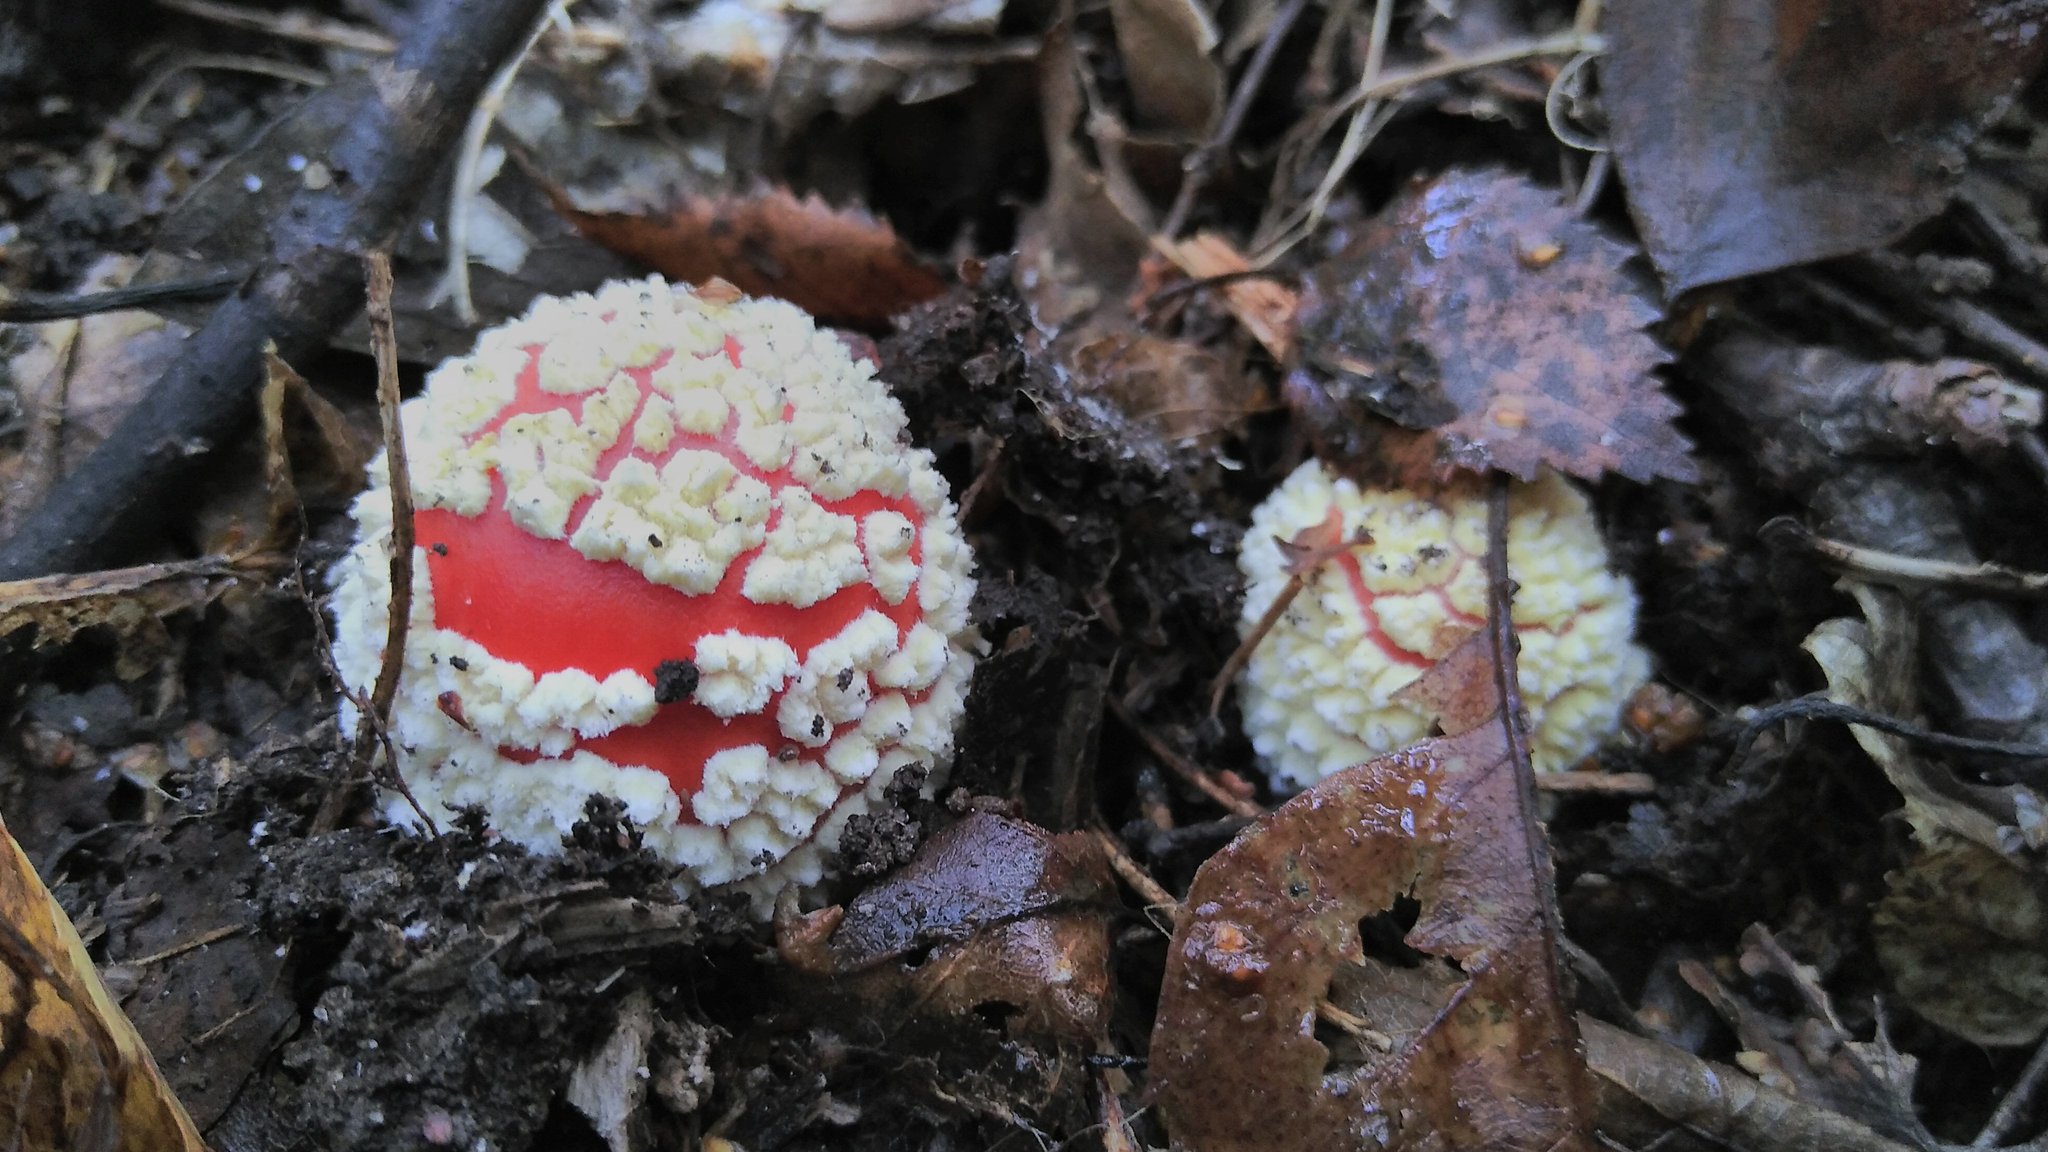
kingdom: Fungi
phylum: Basidiomycota
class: Agaricomycetes
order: Agaricales
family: Amanitaceae
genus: Amanita
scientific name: Amanita muscaria
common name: Fly agaric
